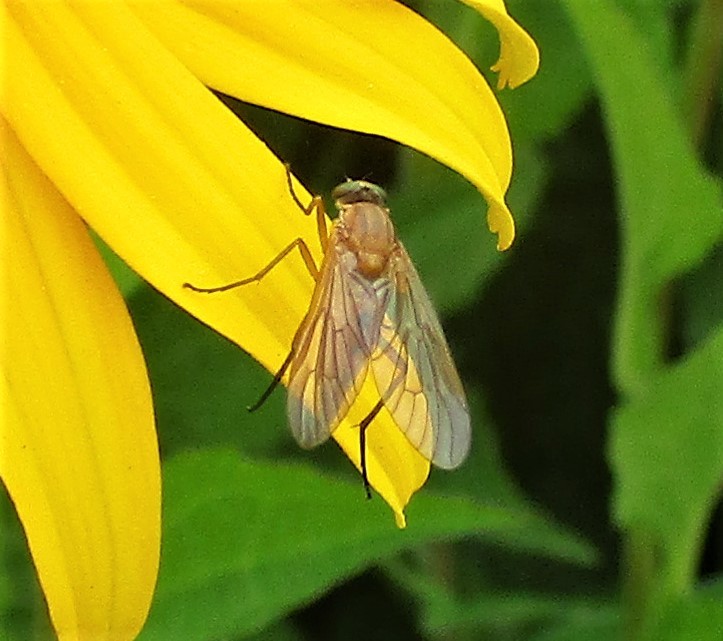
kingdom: Animalia
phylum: Arthropoda
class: Insecta
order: Diptera
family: Rhagionidae
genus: Rhagio
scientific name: Rhagio tringaria
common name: Marsh snipefly
